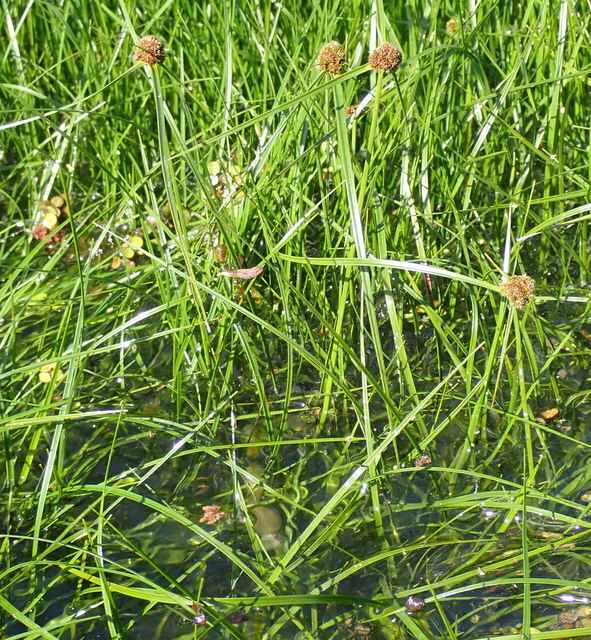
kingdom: Plantae
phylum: Tracheophyta
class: Liliopsida
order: Poales
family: Cyperaceae
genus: Cyperus
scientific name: Cyperus blepharoleptos
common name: Cuban bulrush
